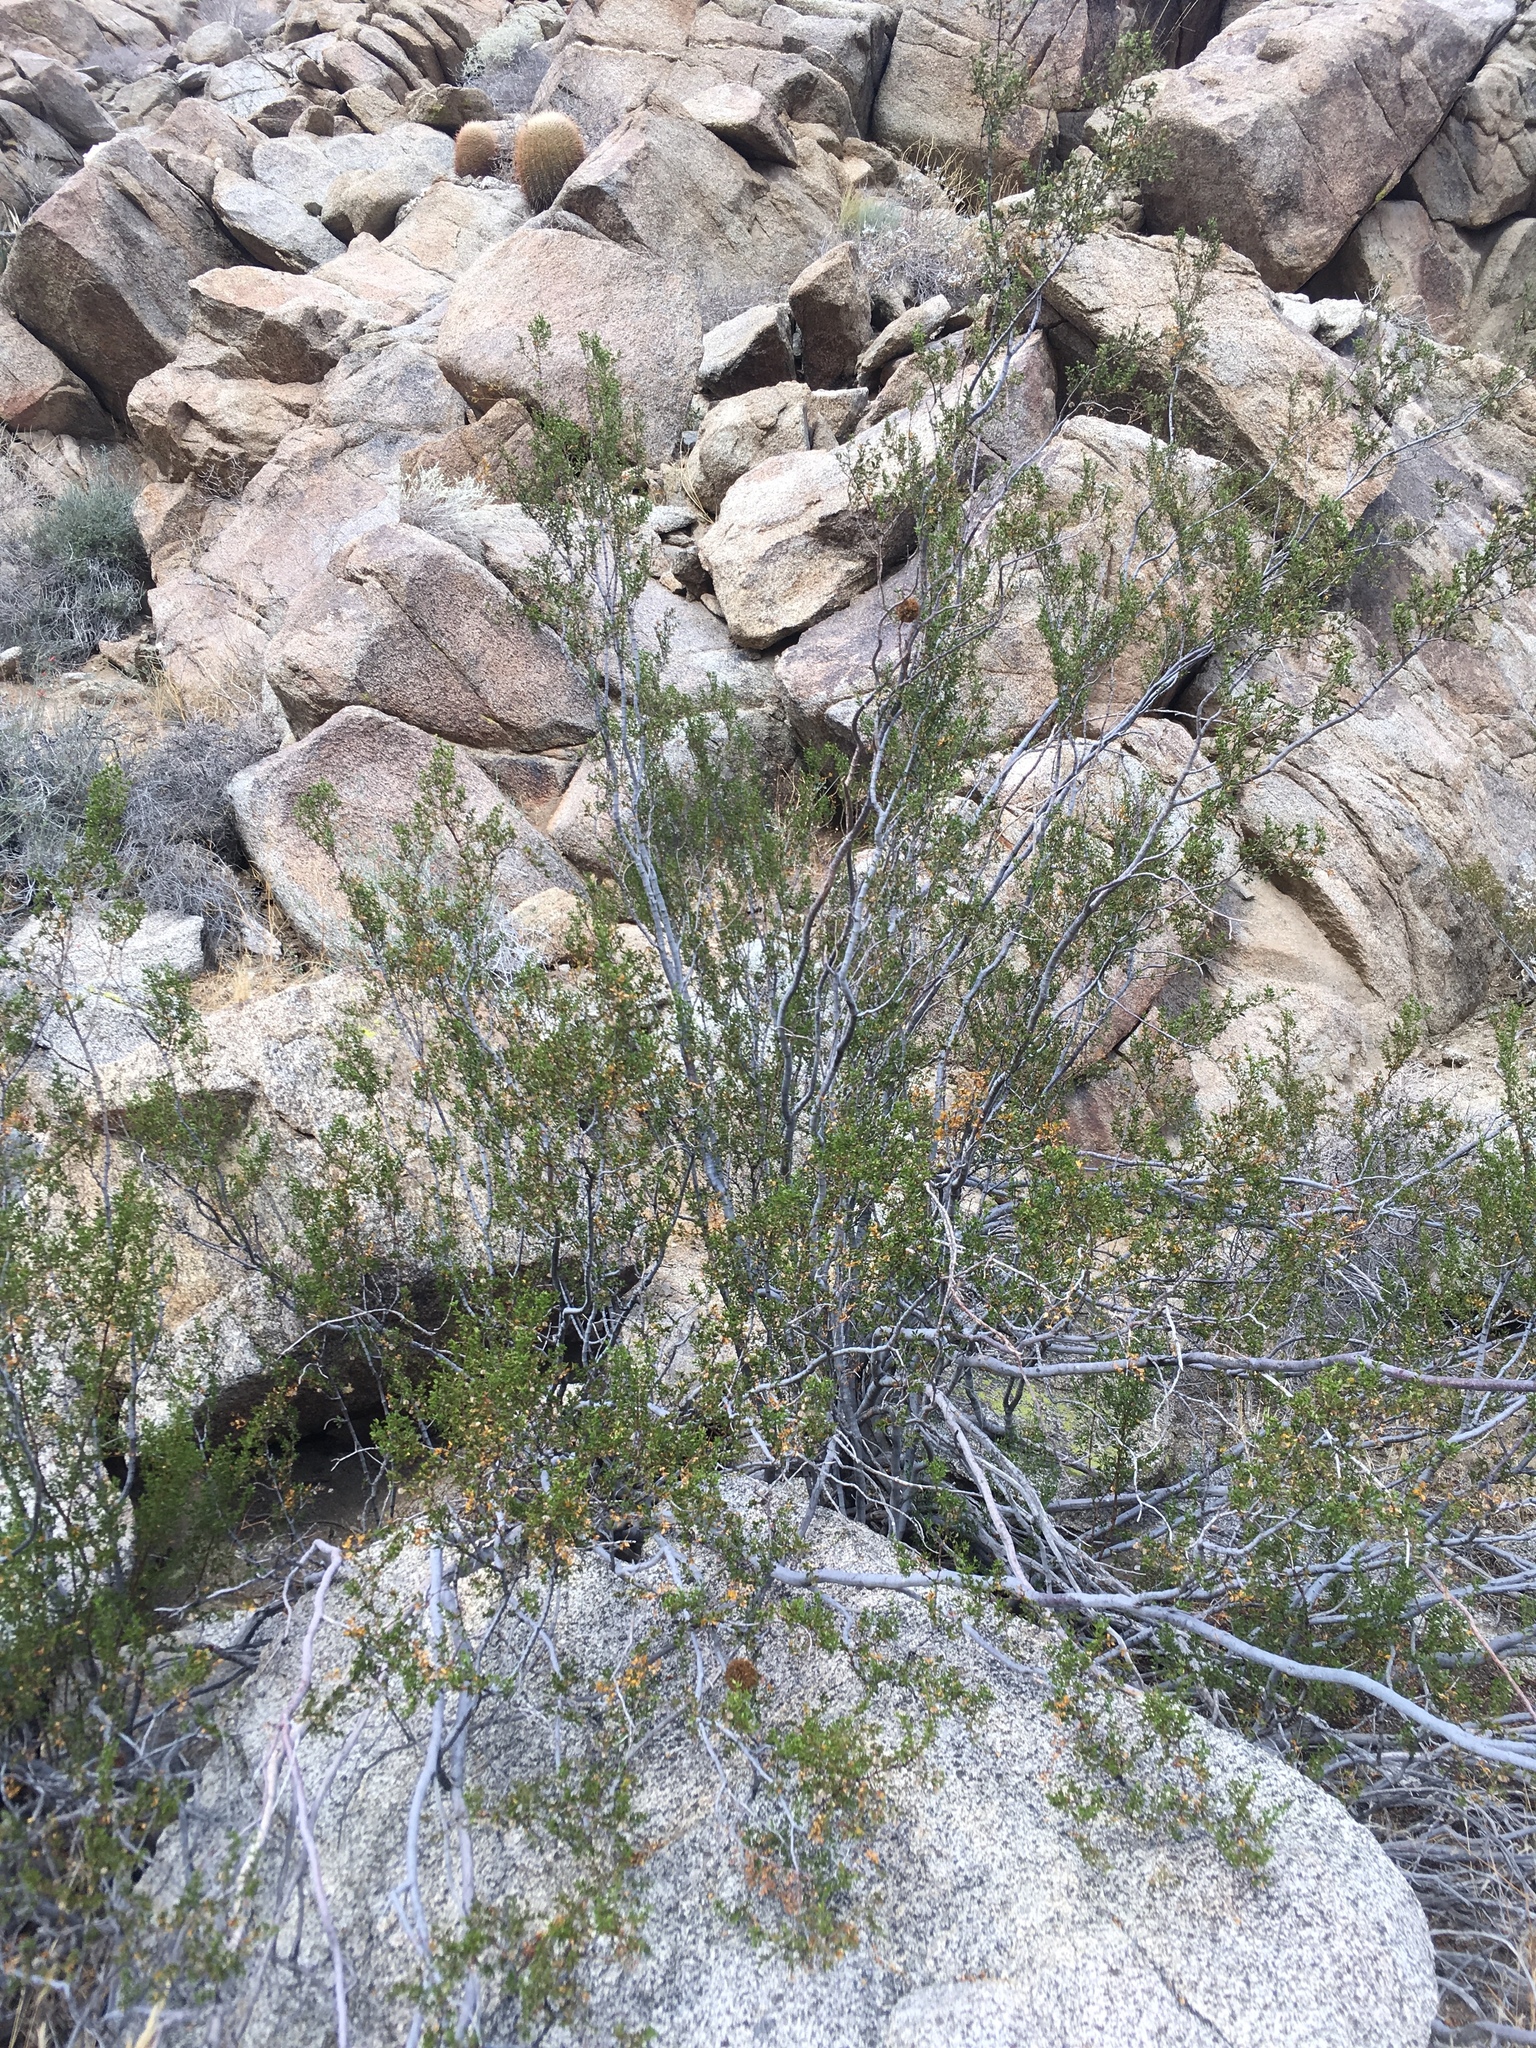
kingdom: Plantae
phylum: Tracheophyta
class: Magnoliopsida
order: Zygophyllales
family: Zygophyllaceae
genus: Larrea
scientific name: Larrea tridentata
